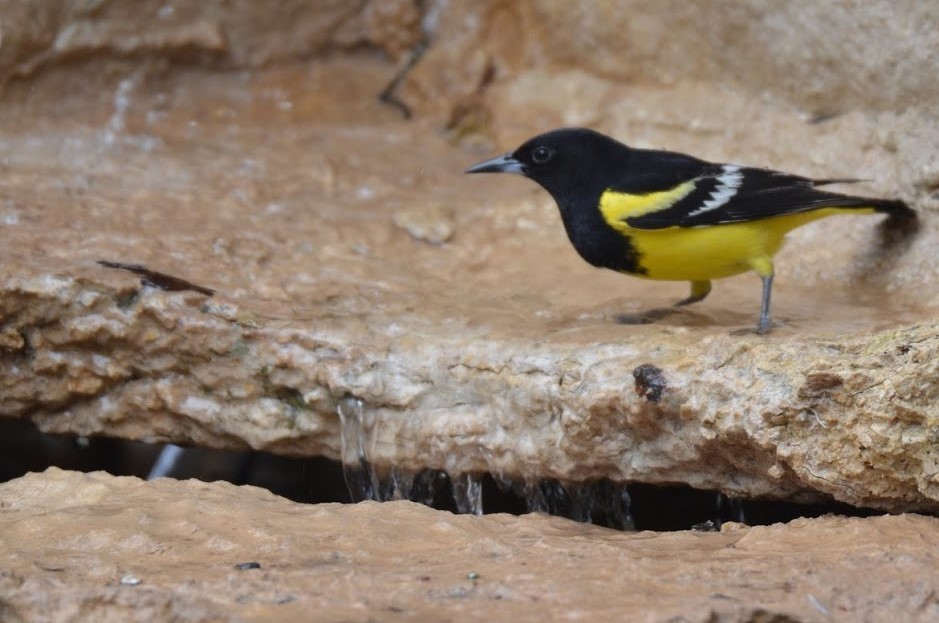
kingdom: Animalia
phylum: Chordata
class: Aves
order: Passeriformes
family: Icteridae
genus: Icterus
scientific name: Icterus parisorum
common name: Scott's oriole
